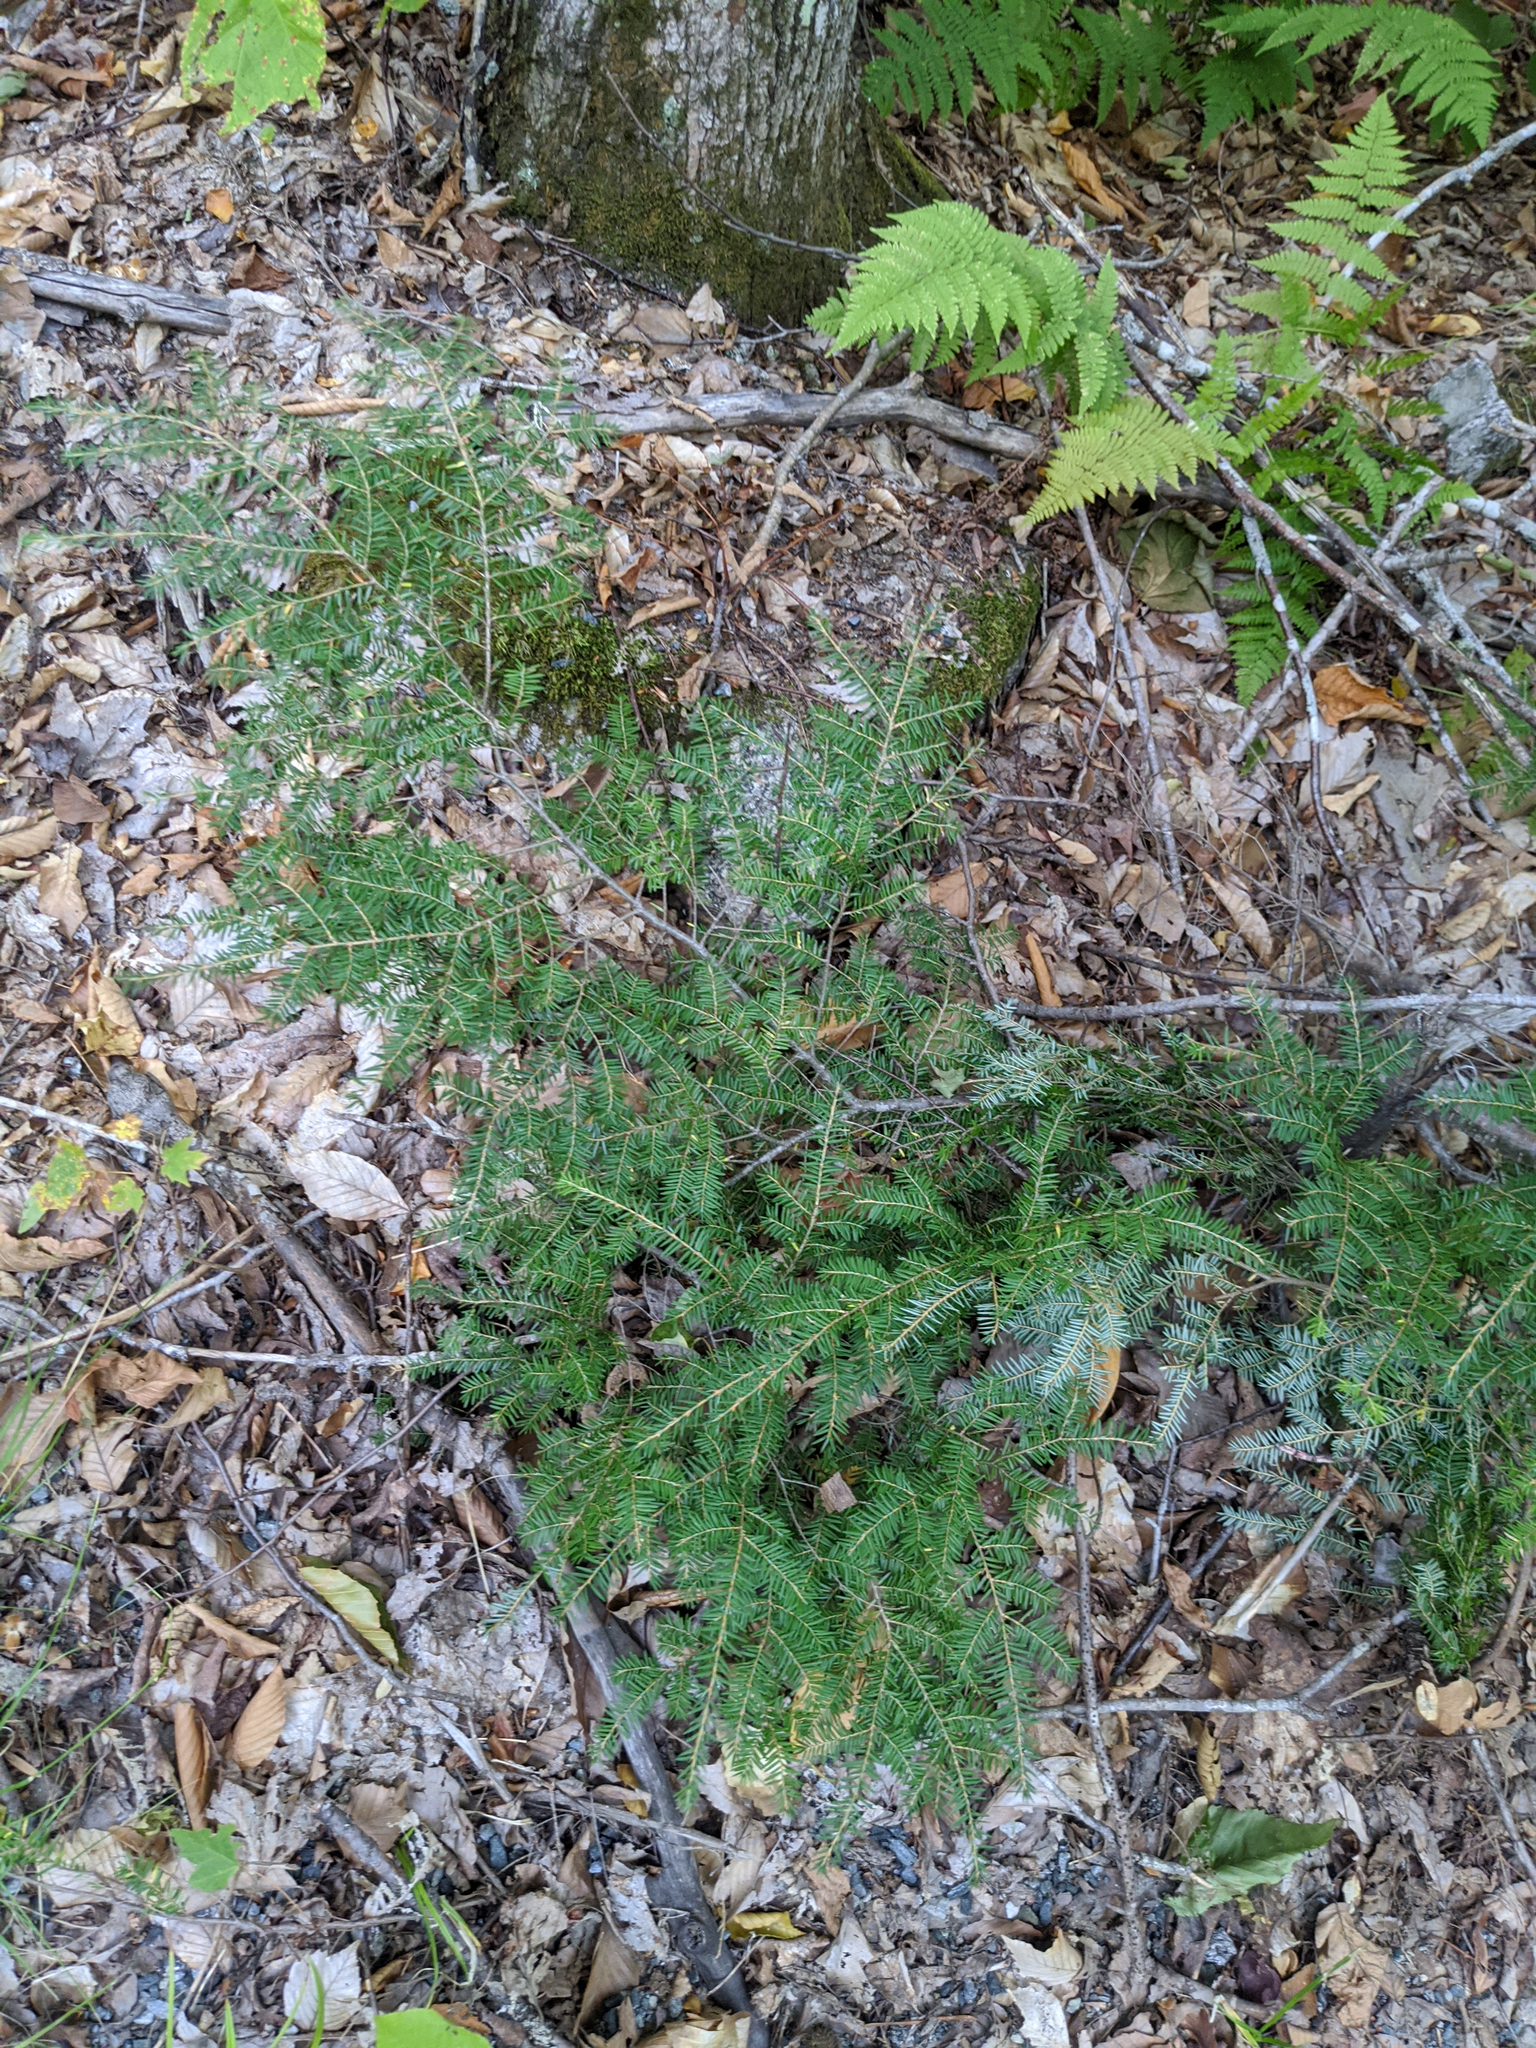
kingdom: Plantae
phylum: Tracheophyta
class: Pinopsida
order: Pinales
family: Pinaceae
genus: Tsuga
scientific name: Tsuga canadensis
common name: Eastern hemlock
